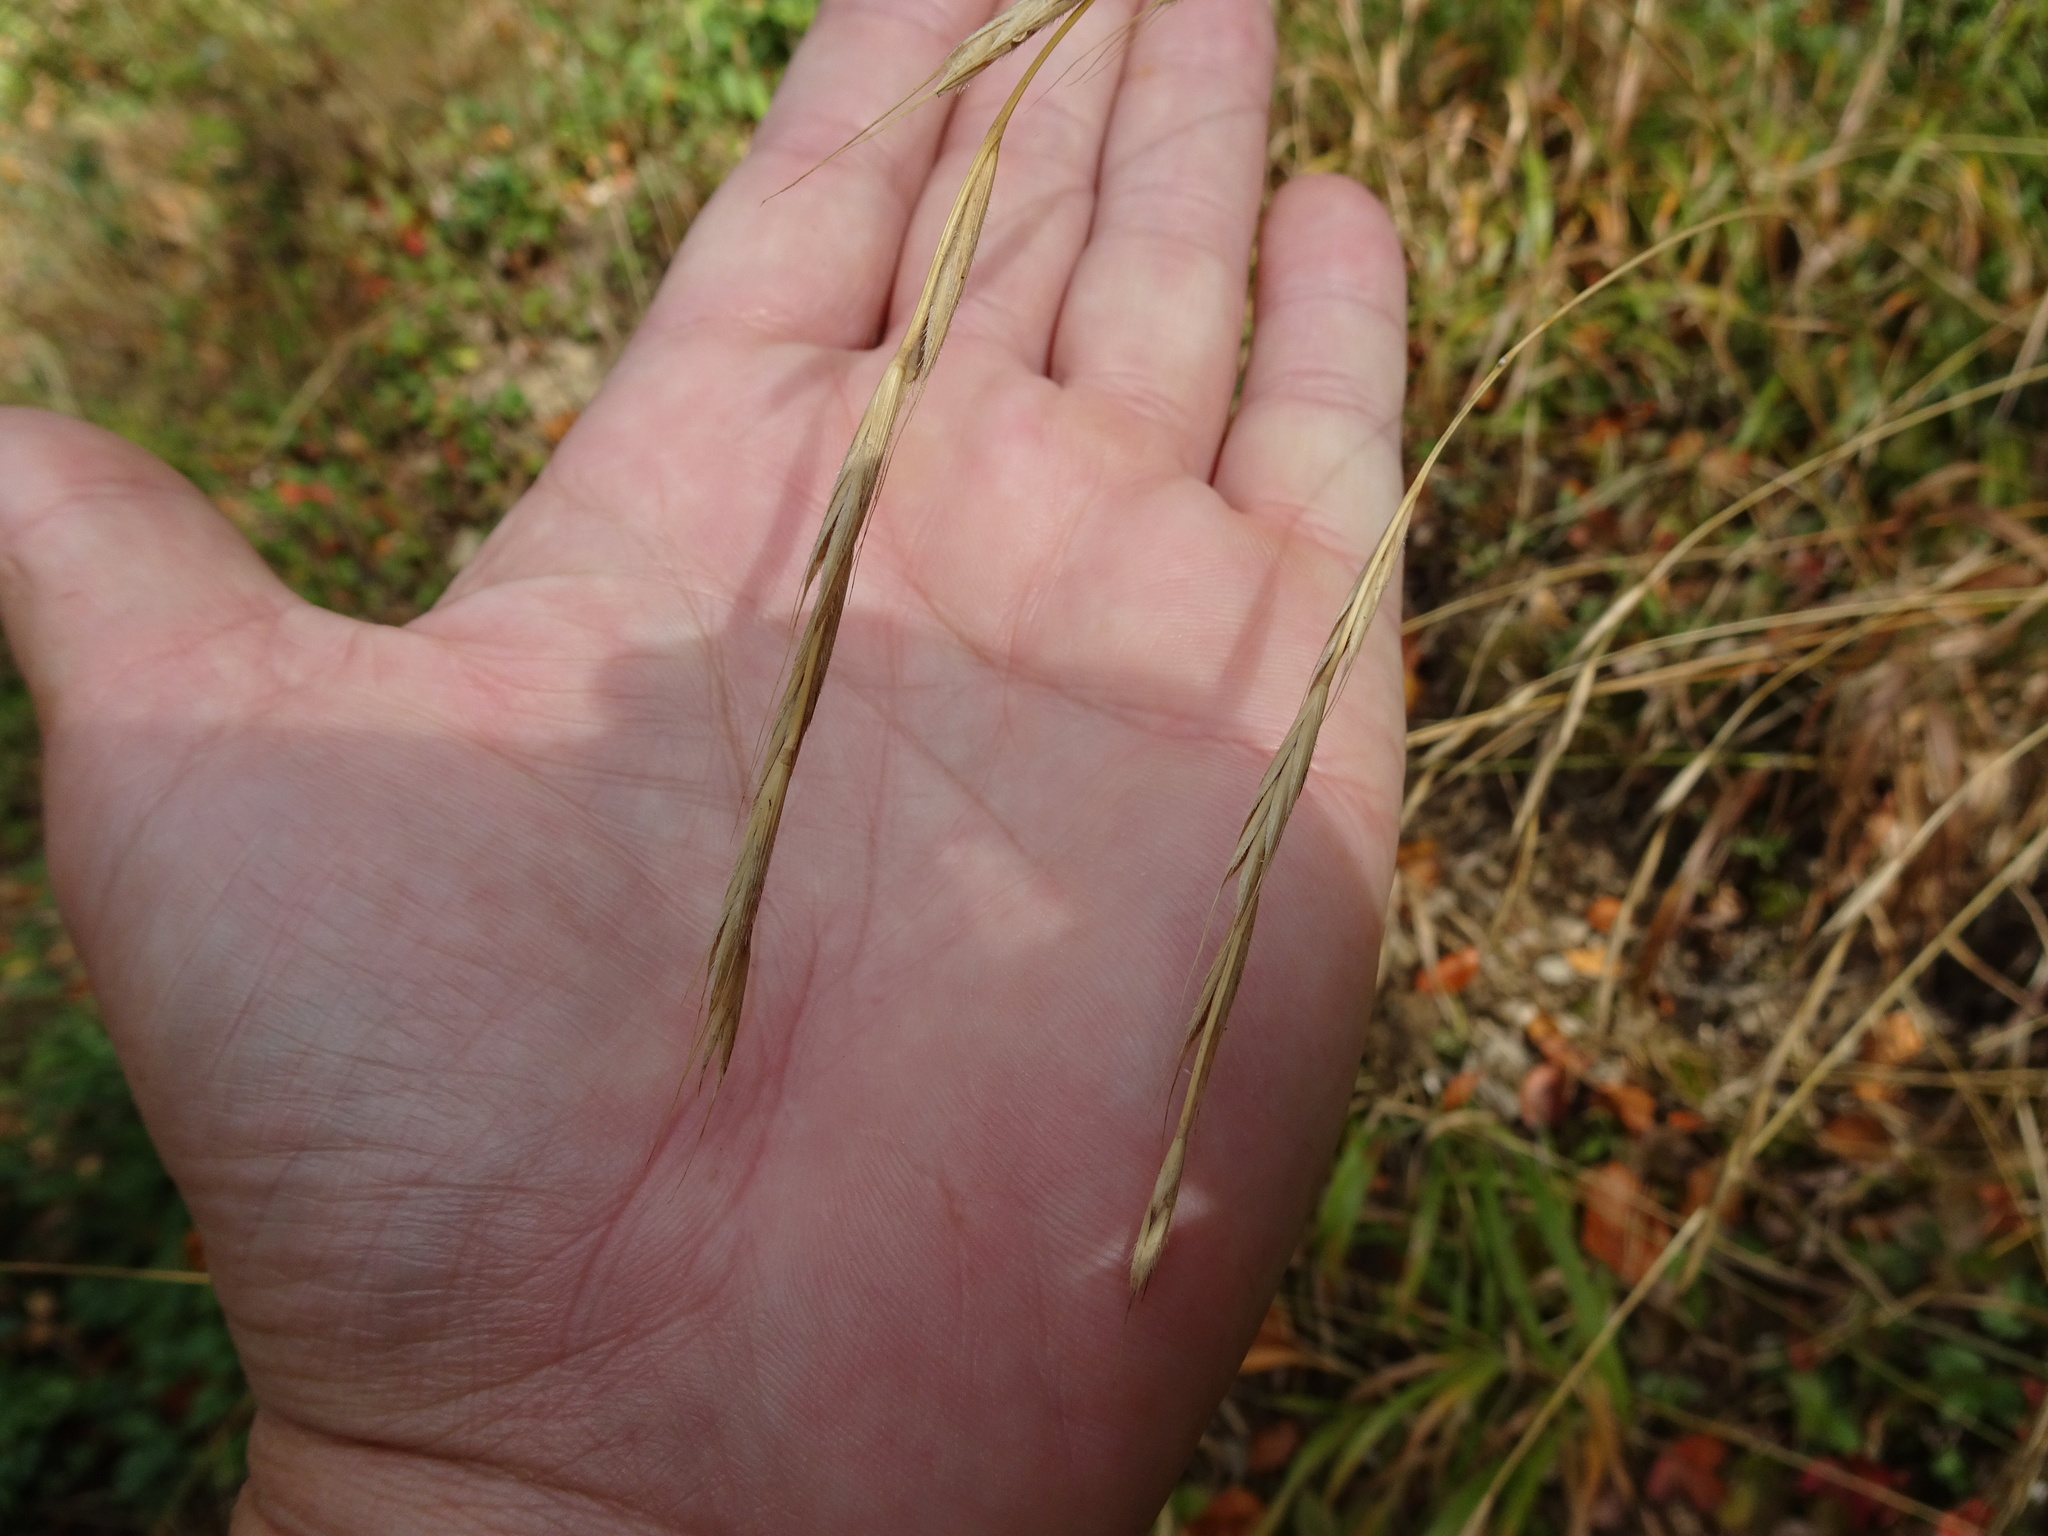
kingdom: Plantae
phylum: Tracheophyta
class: Liliopsida
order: Poales
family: Poaceae
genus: Brachypodium
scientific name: Brachypodium sylvaticum
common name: False-brome
